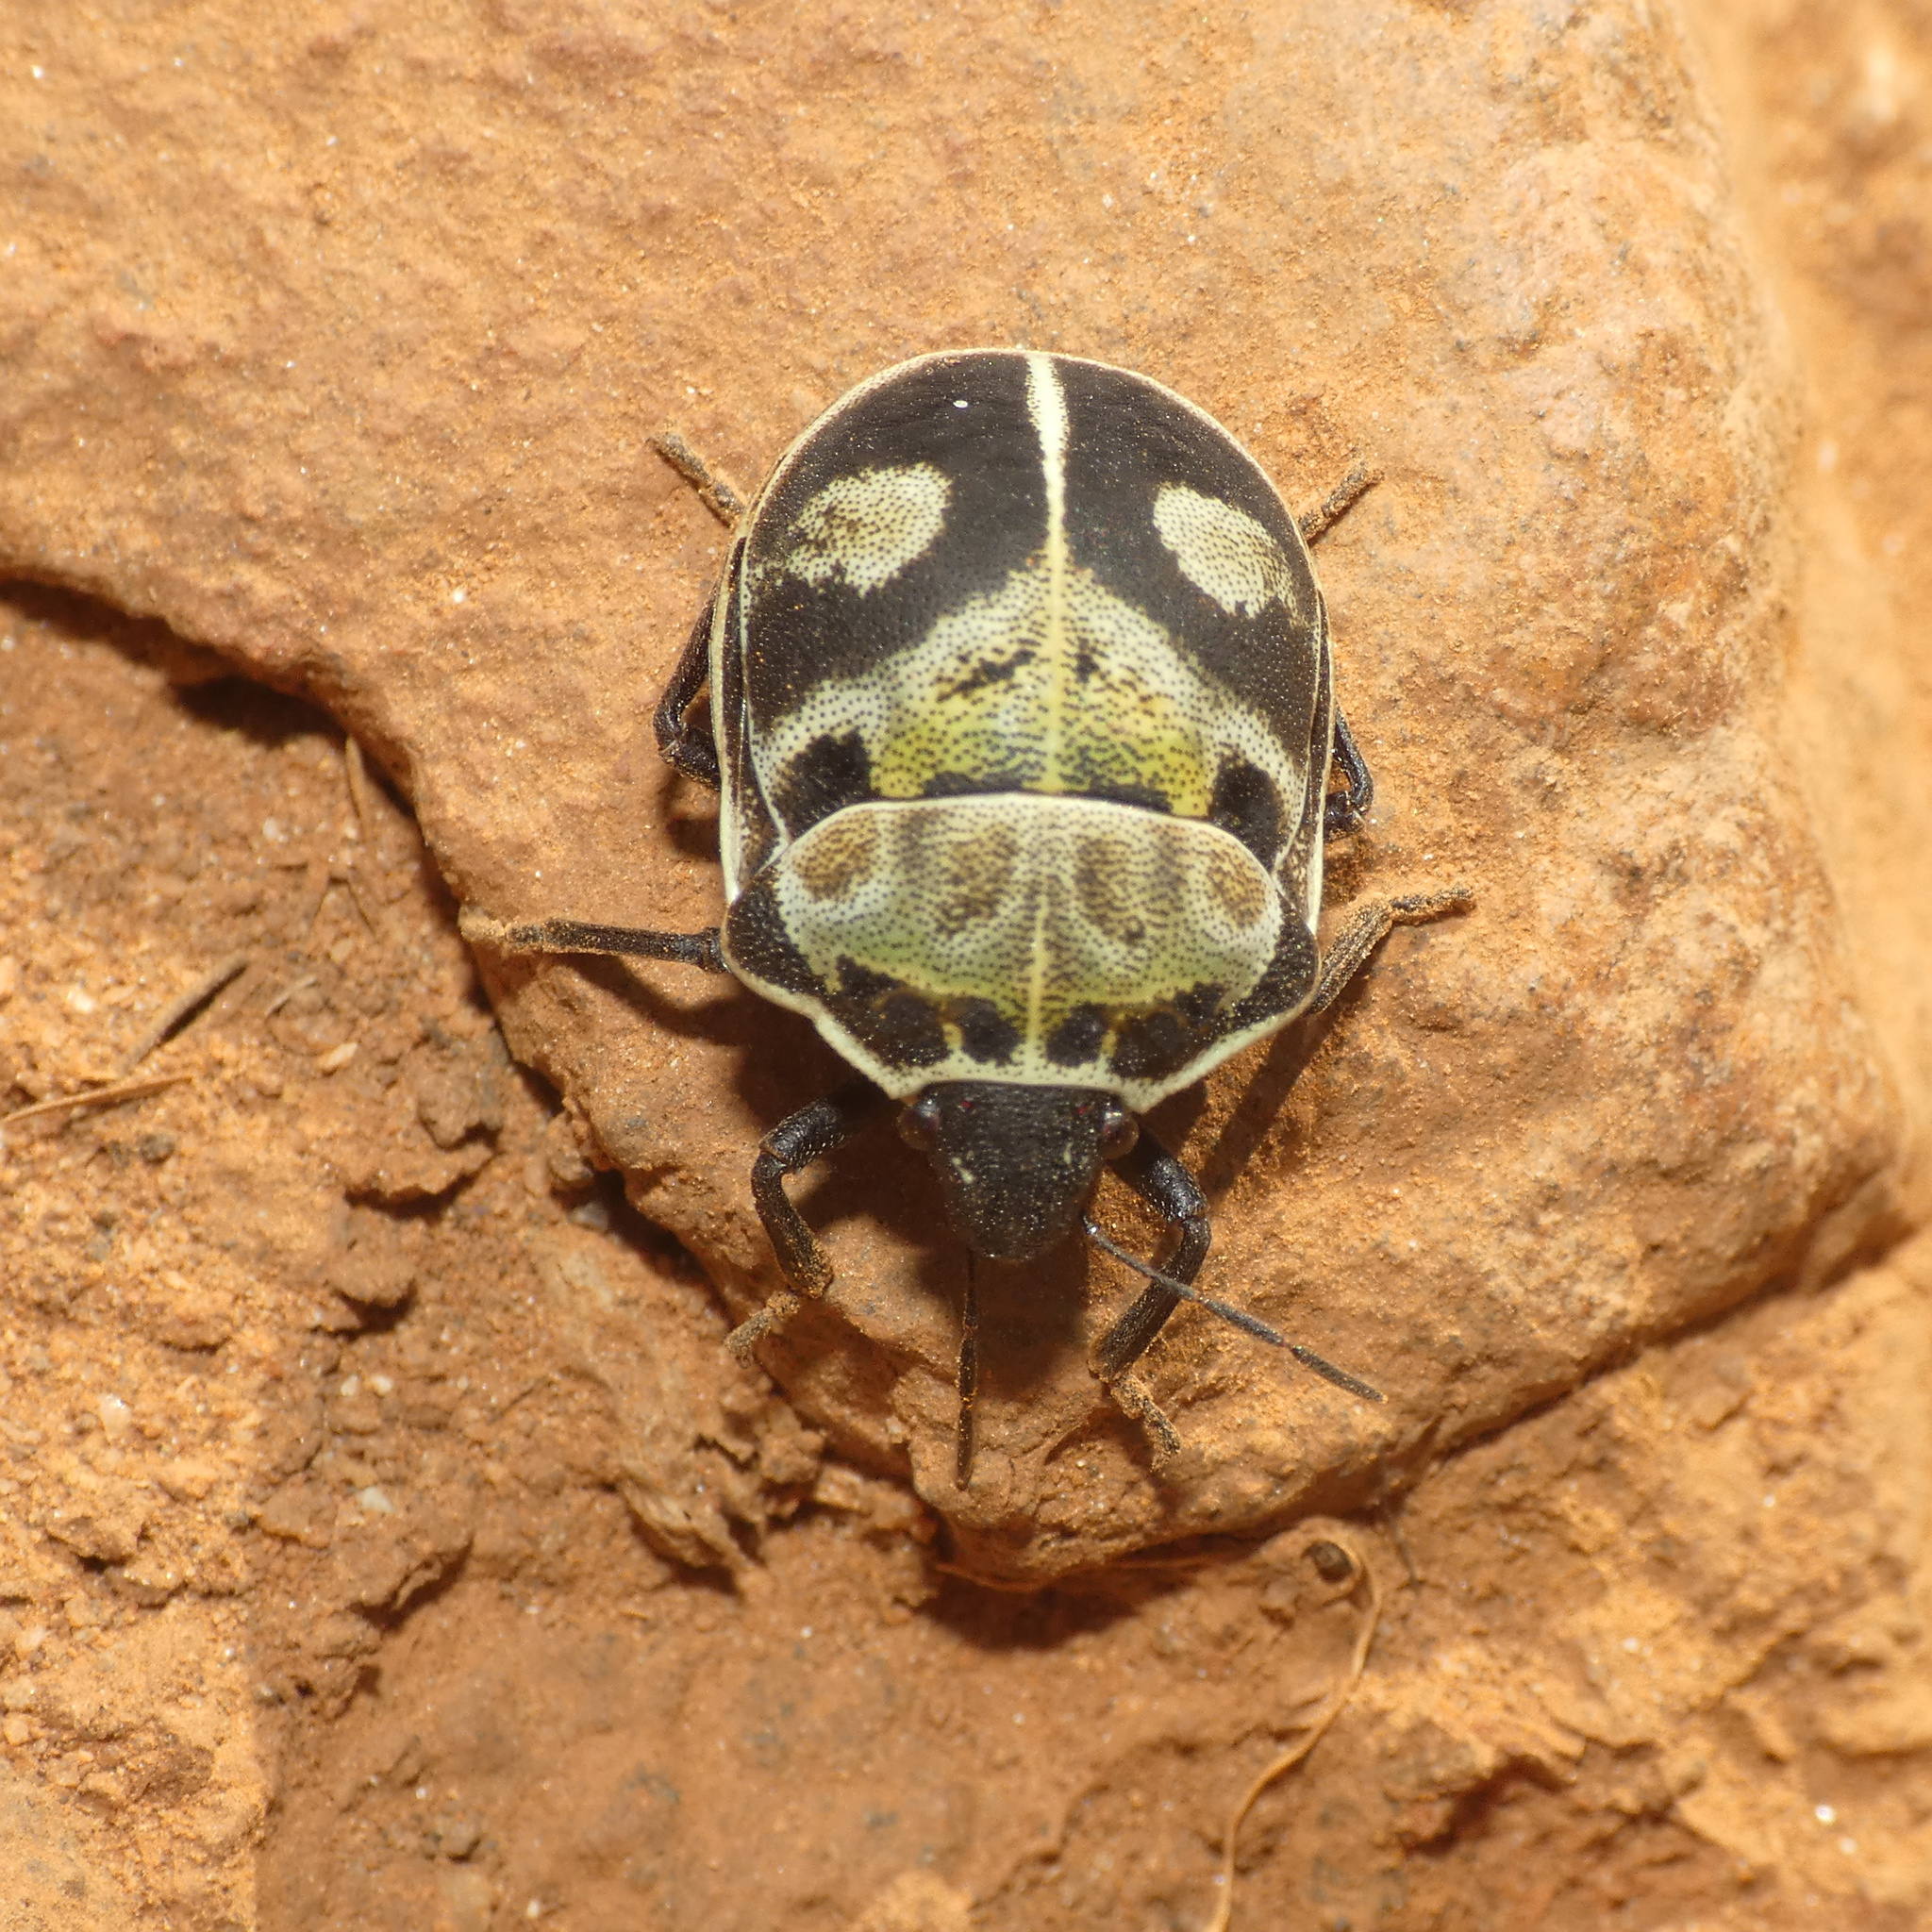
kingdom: Animalia
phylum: Arthropoda
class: Insecta
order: Hemiptera
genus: Deroplax
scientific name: Deroplax silphoides
